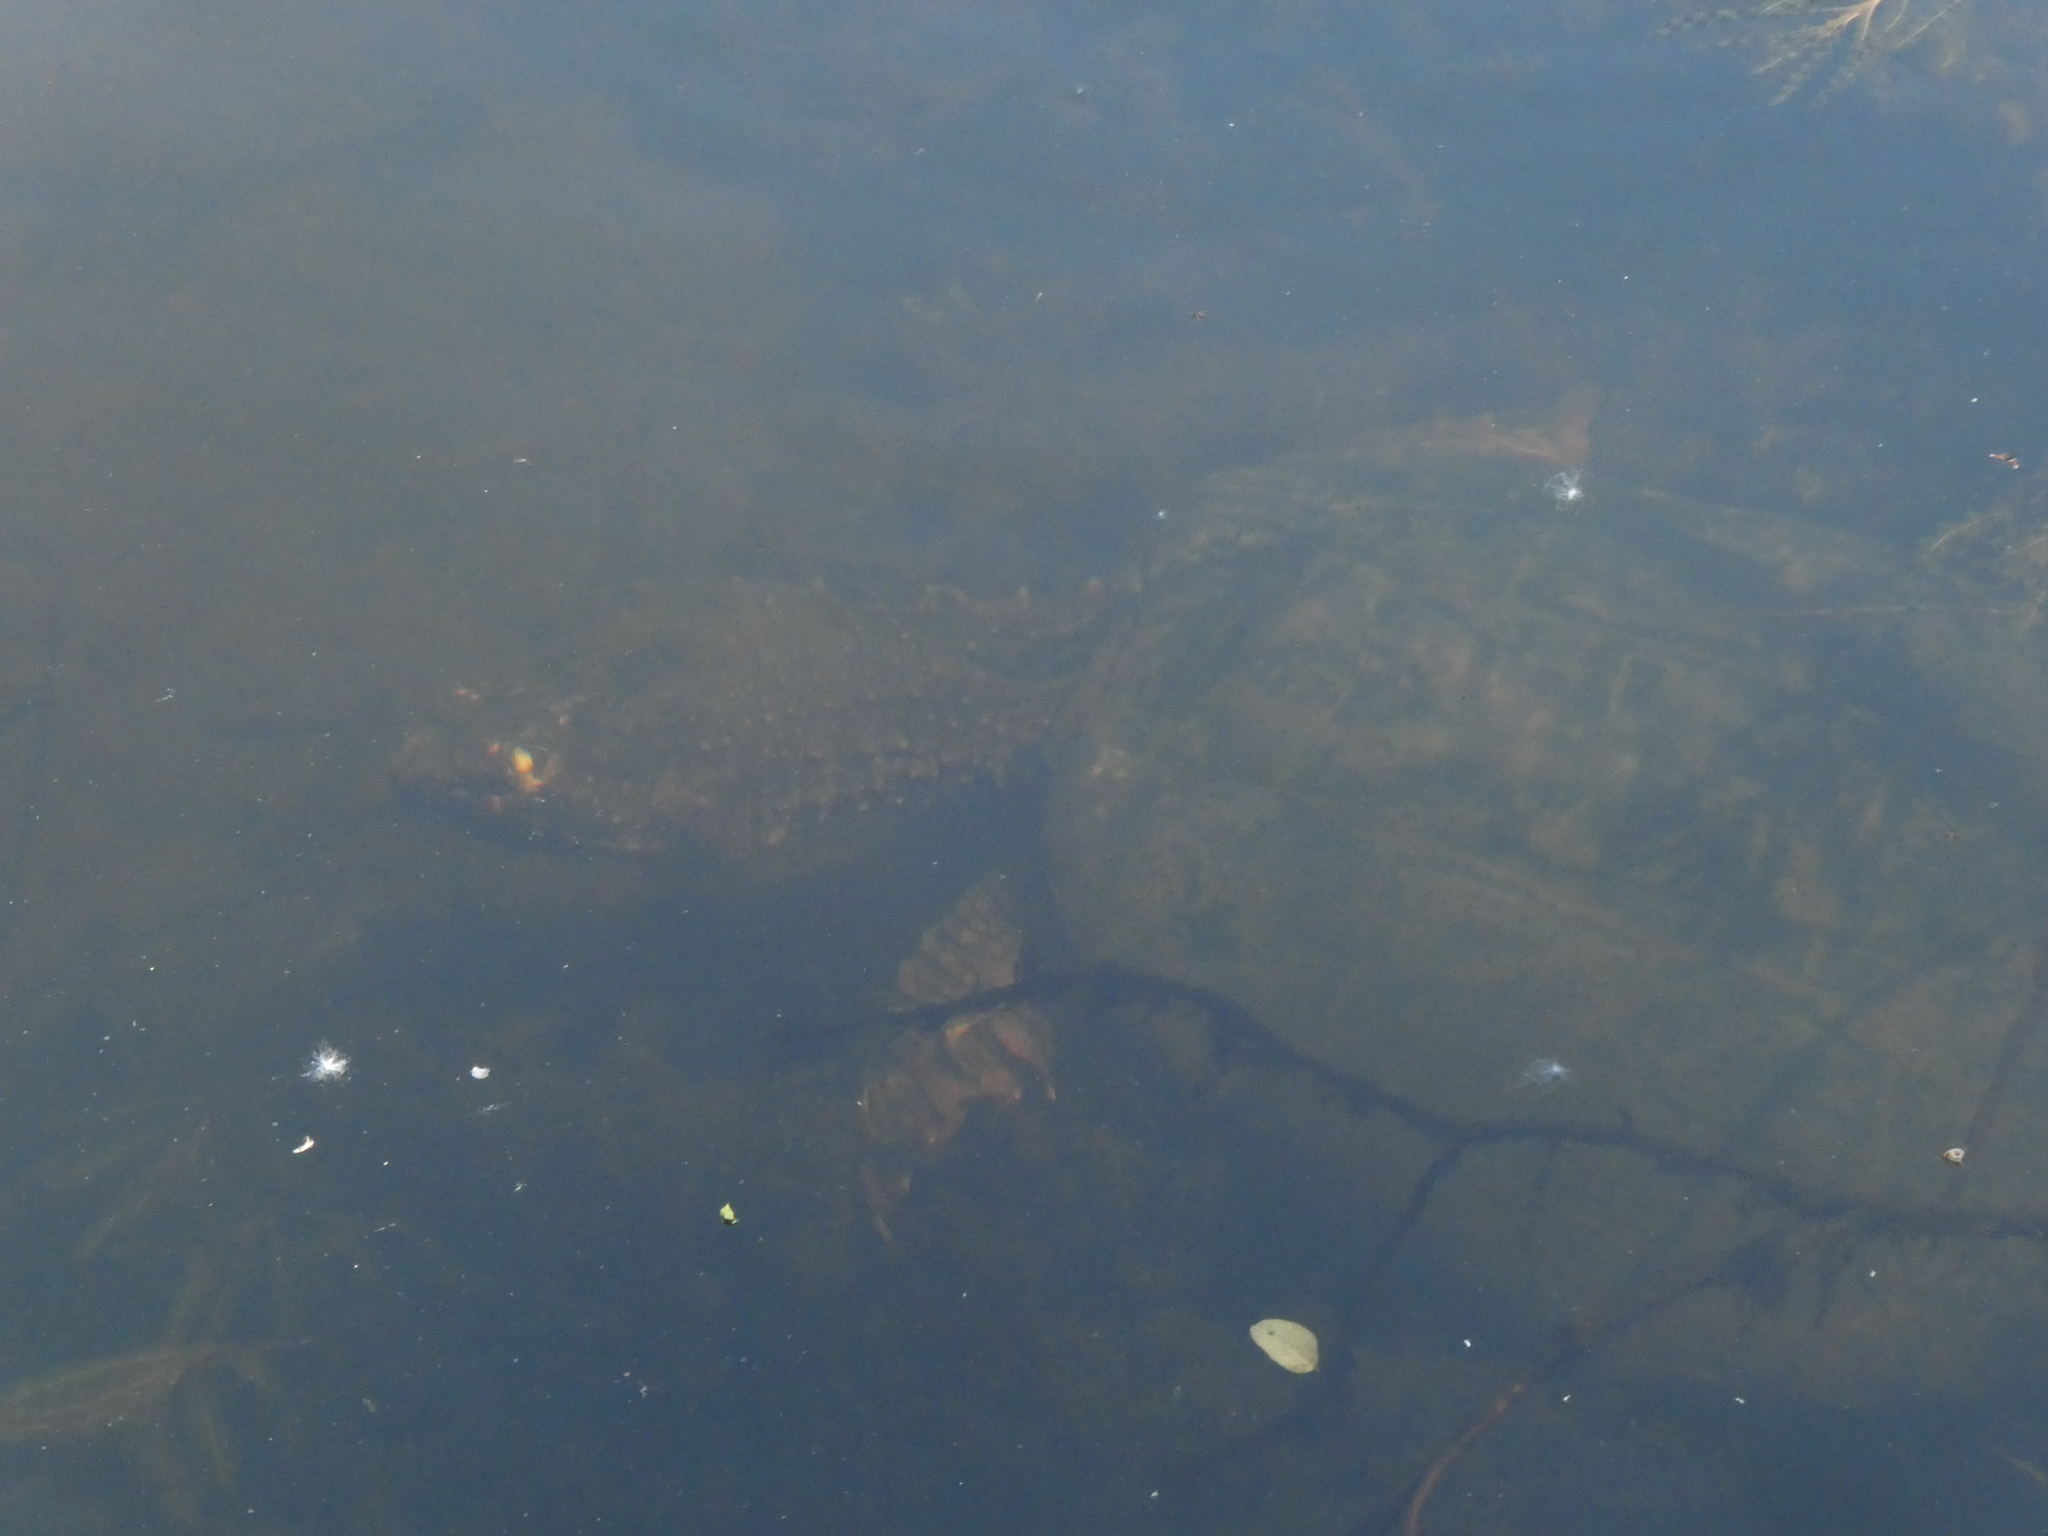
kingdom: Animalia
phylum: Chordata
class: Testudines
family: Chelydridae
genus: Chelydra
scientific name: Chelydra serpentina
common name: Common snapping turtle
